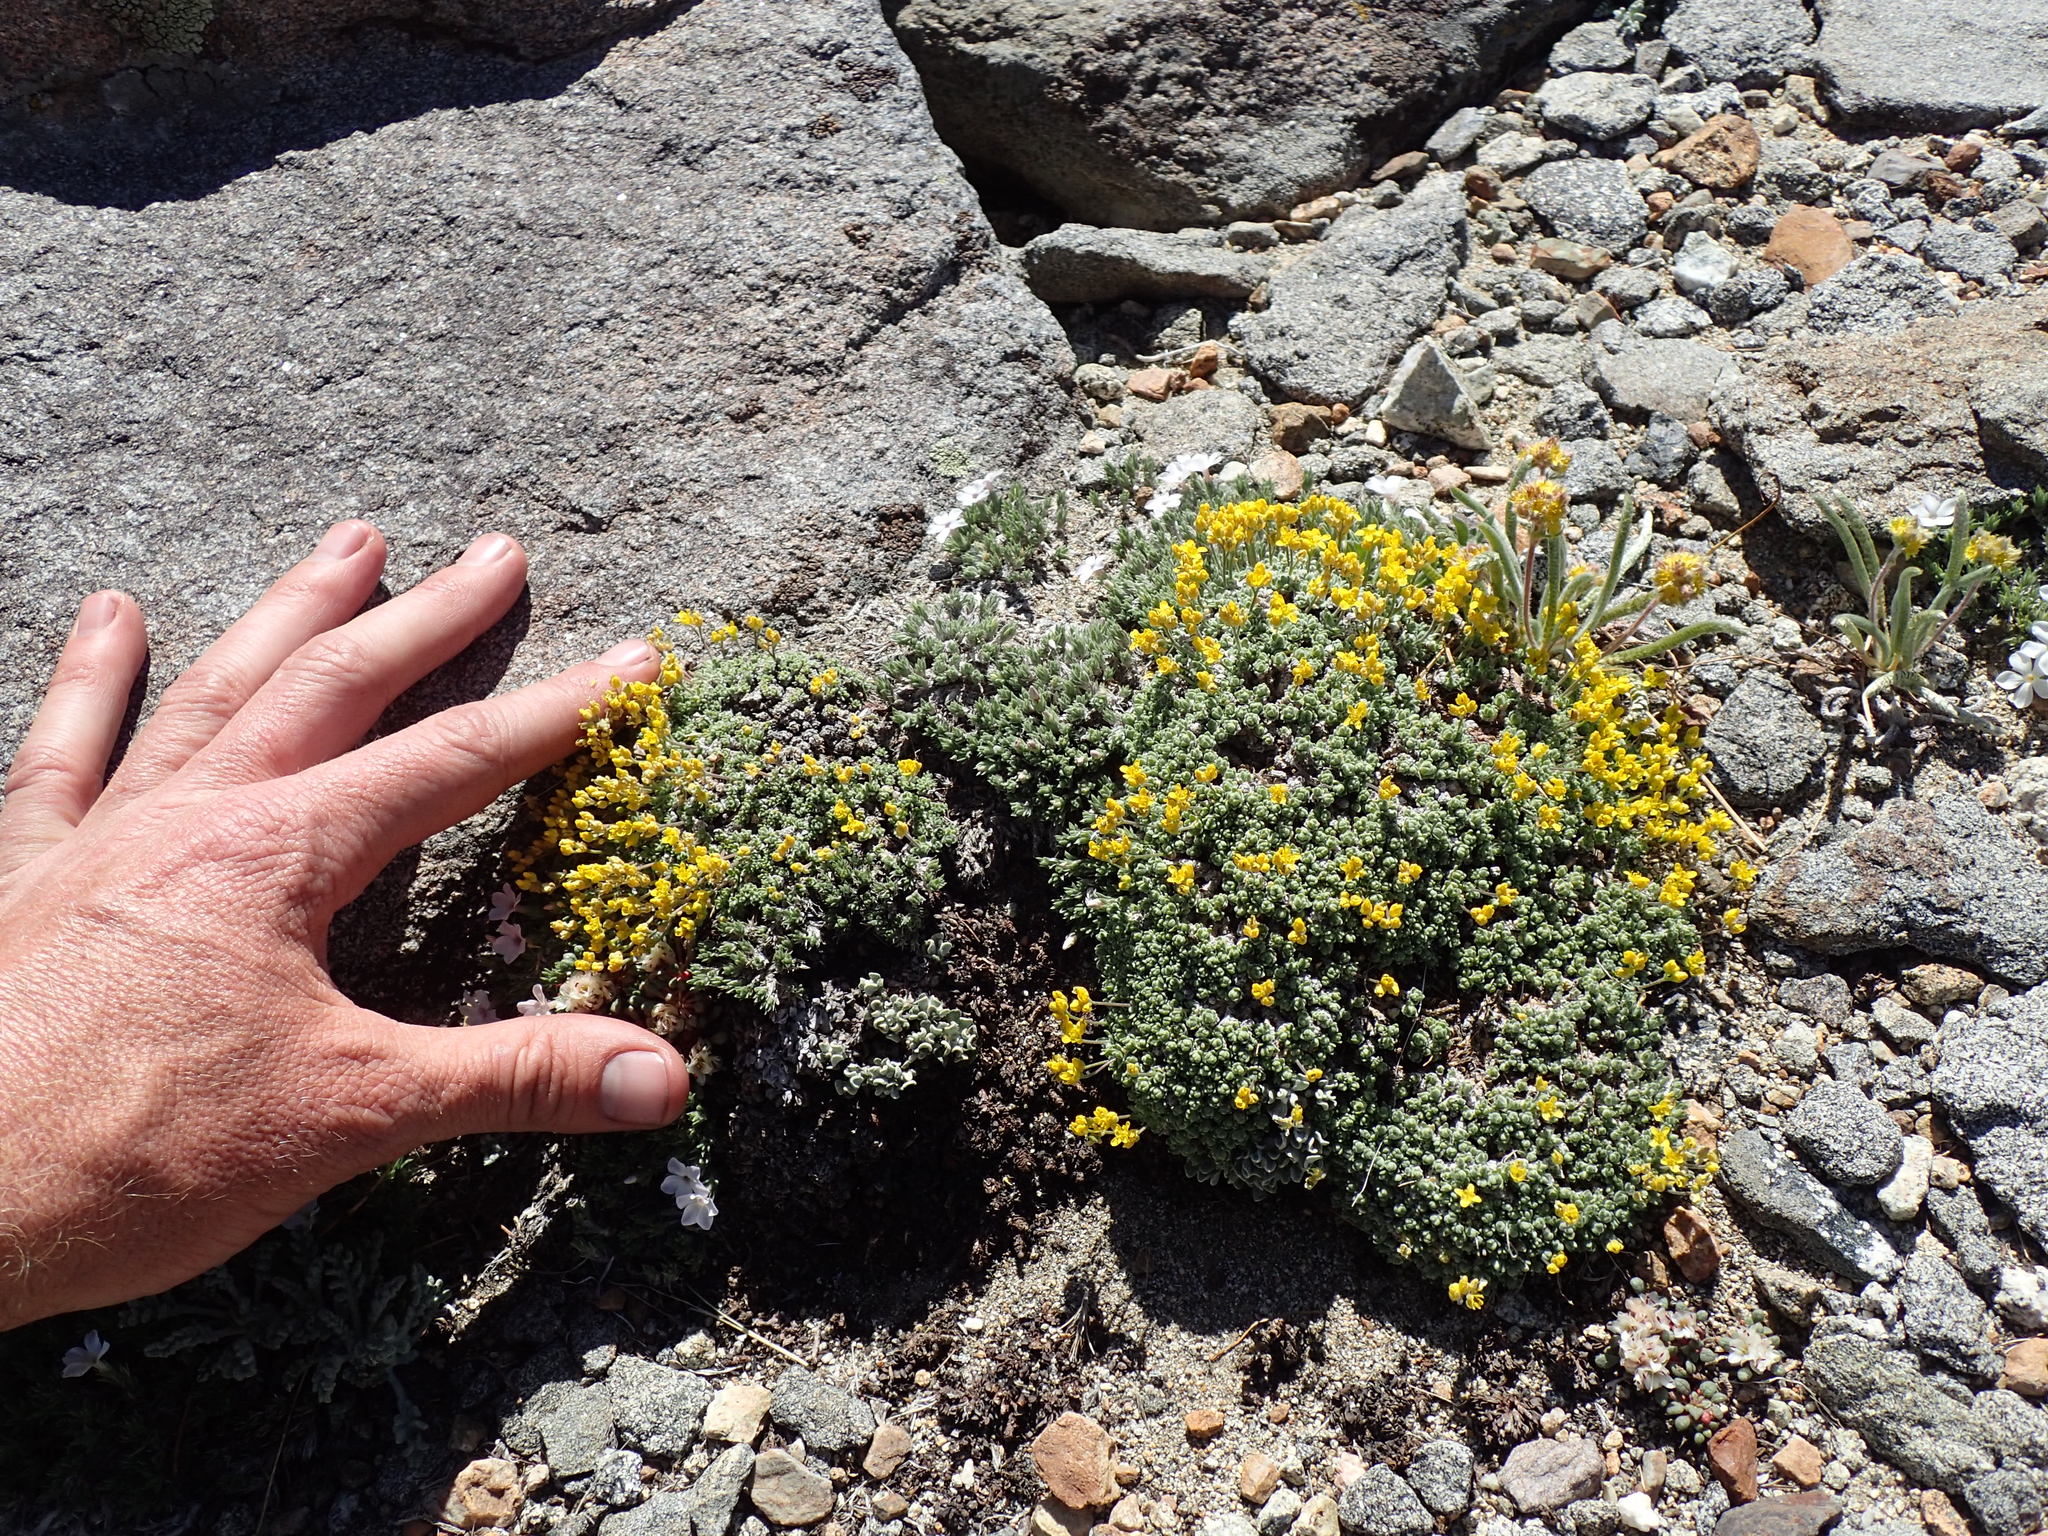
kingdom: Plantae
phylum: Tracheophyta
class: Magnoliopsida
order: Brassicales
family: Brassicaceae
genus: Draba
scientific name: Draba subumbellata
